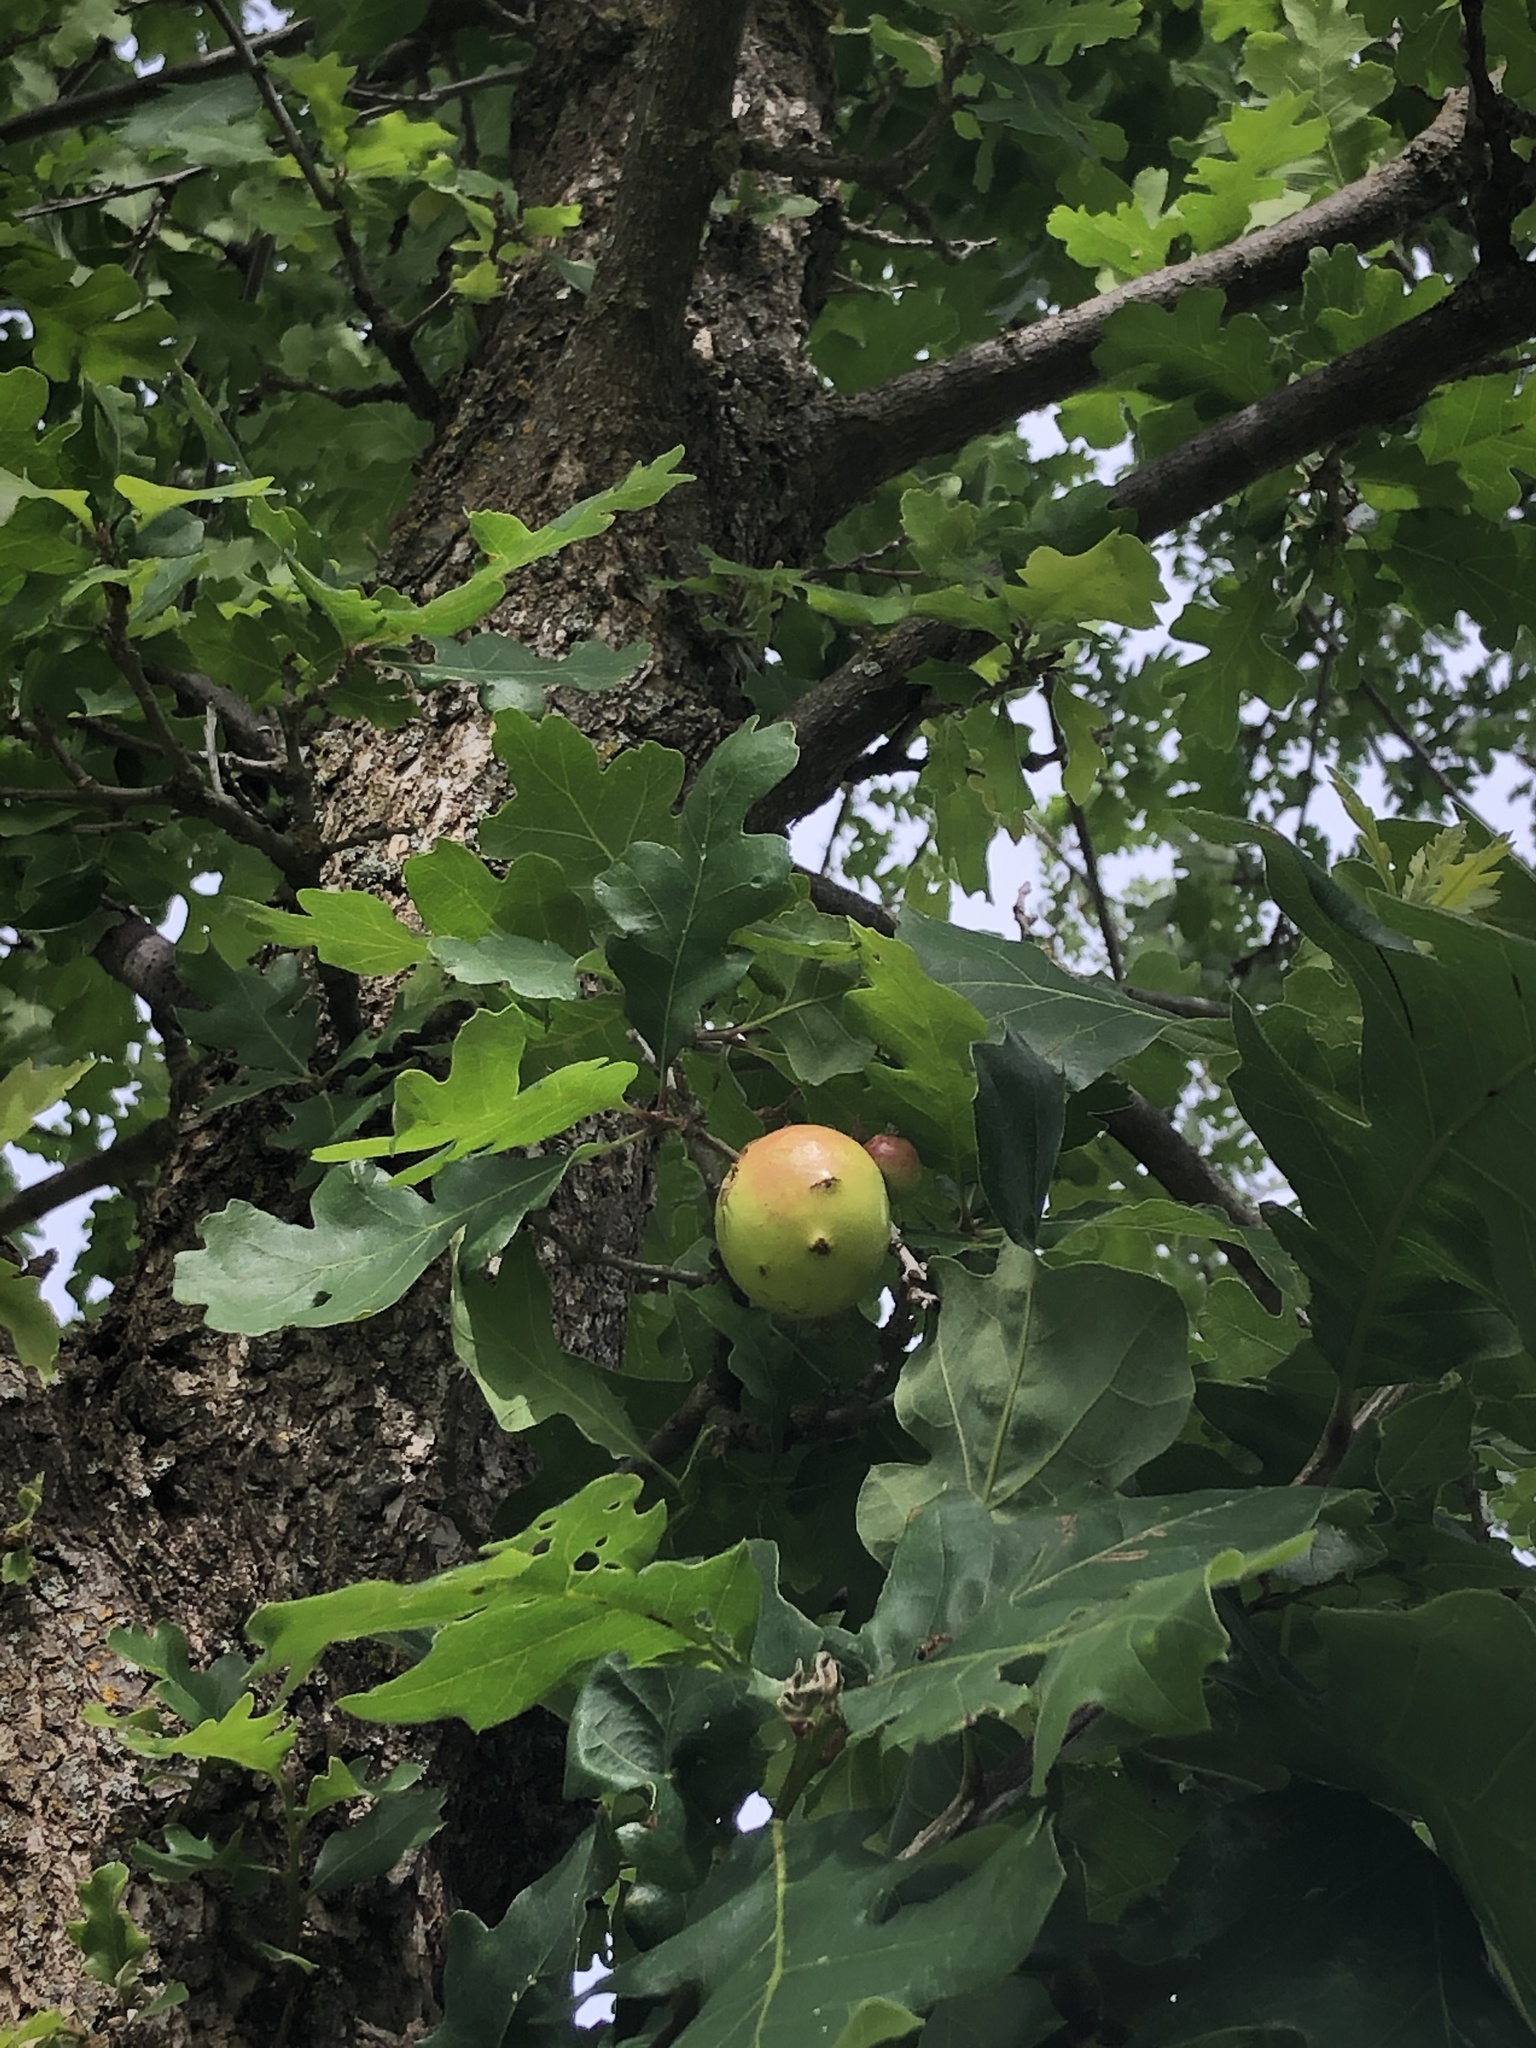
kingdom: Animalia
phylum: Arthropoda
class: Insecta
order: Hymenoptera
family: Cynipidae
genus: Andricus
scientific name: Andricus quercuscalifornicus
